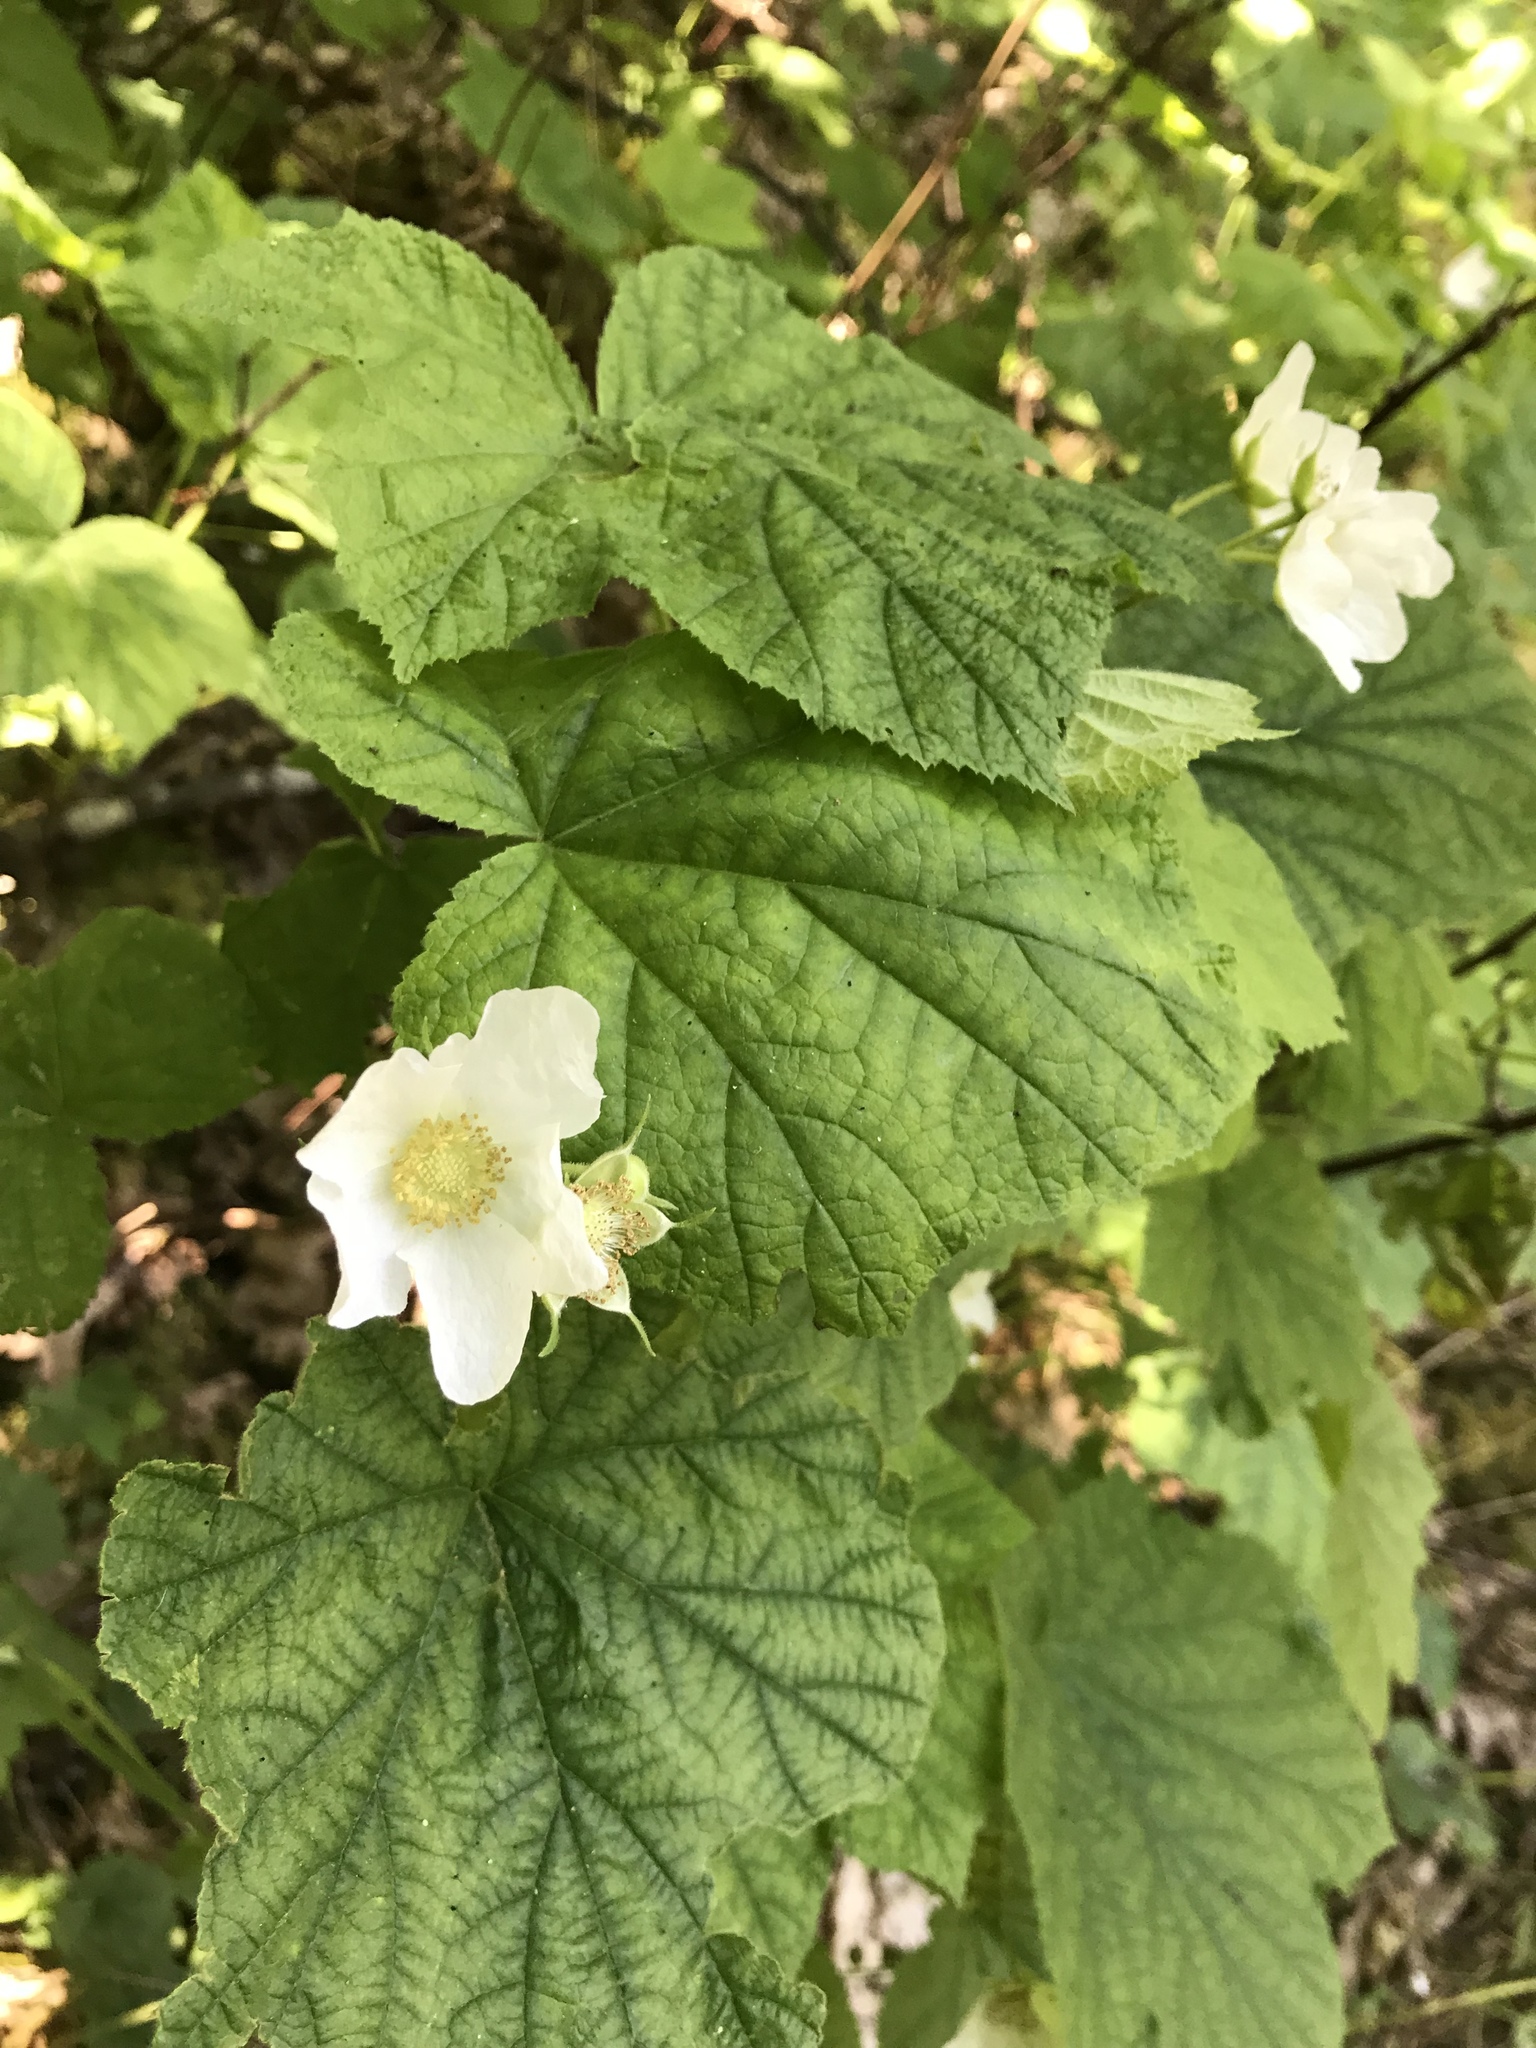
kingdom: Plantae
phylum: Tracheophyta
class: Magnoliopsida
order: Rosales
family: Rosaceae
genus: Rubus
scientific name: Rubus parviflorus
